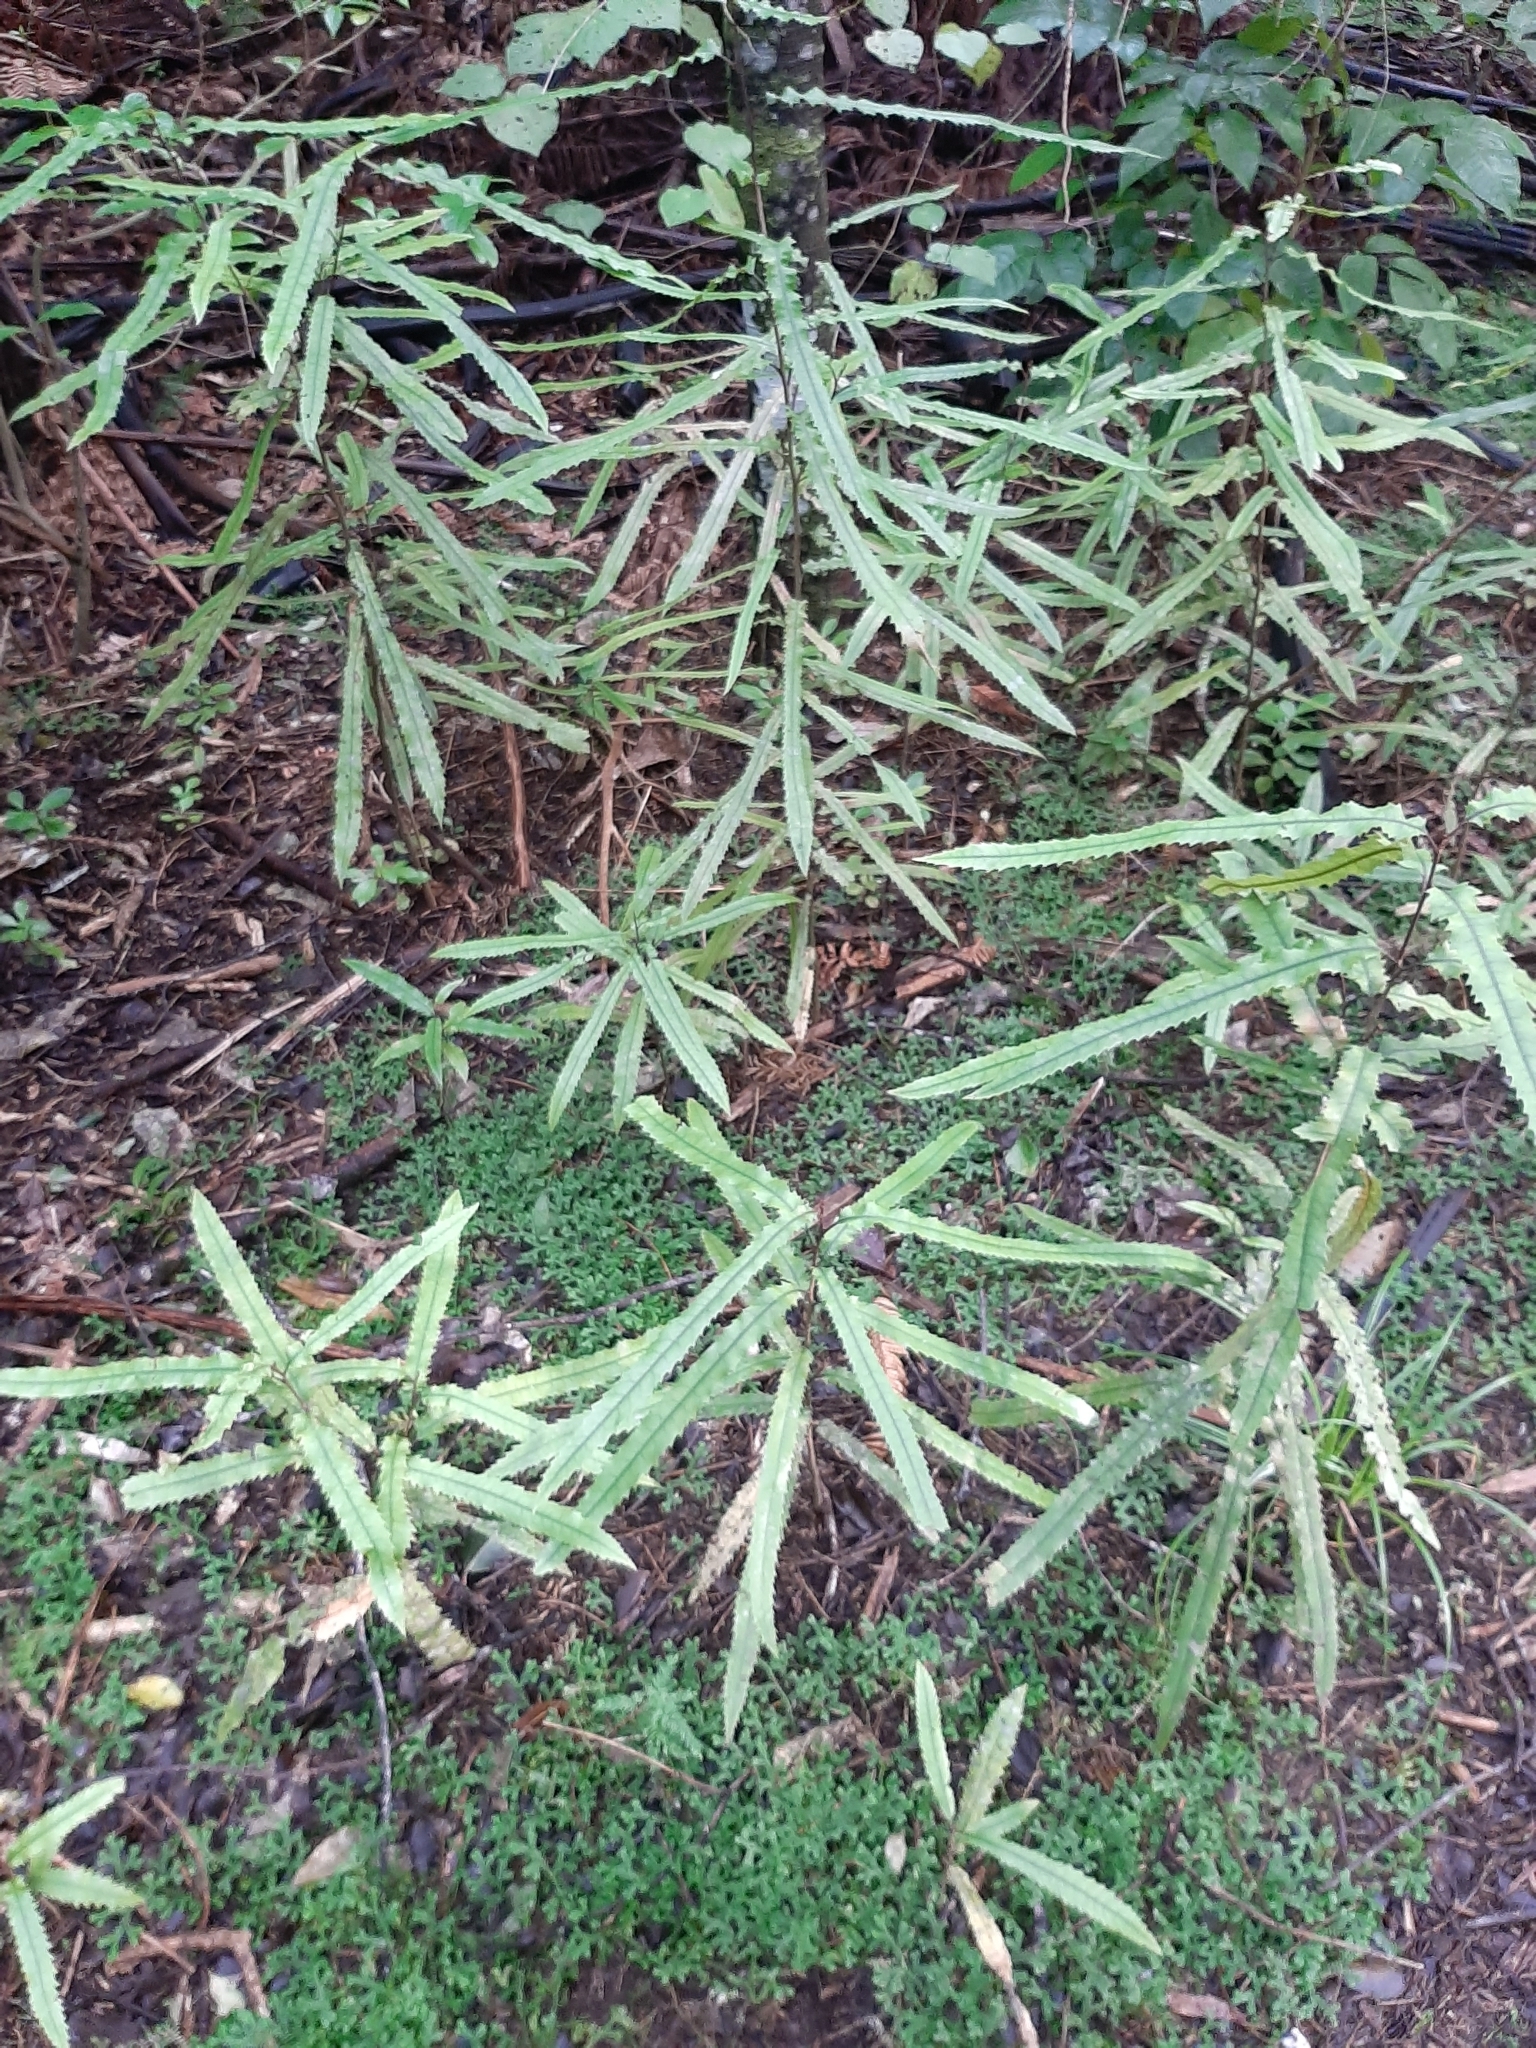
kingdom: Plantae
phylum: Tracheophyta
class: Magnoliopsida
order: Proteales
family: Proteaceae
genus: Knightia
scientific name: Knightia excelsa
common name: New zealand-honeysuckle
